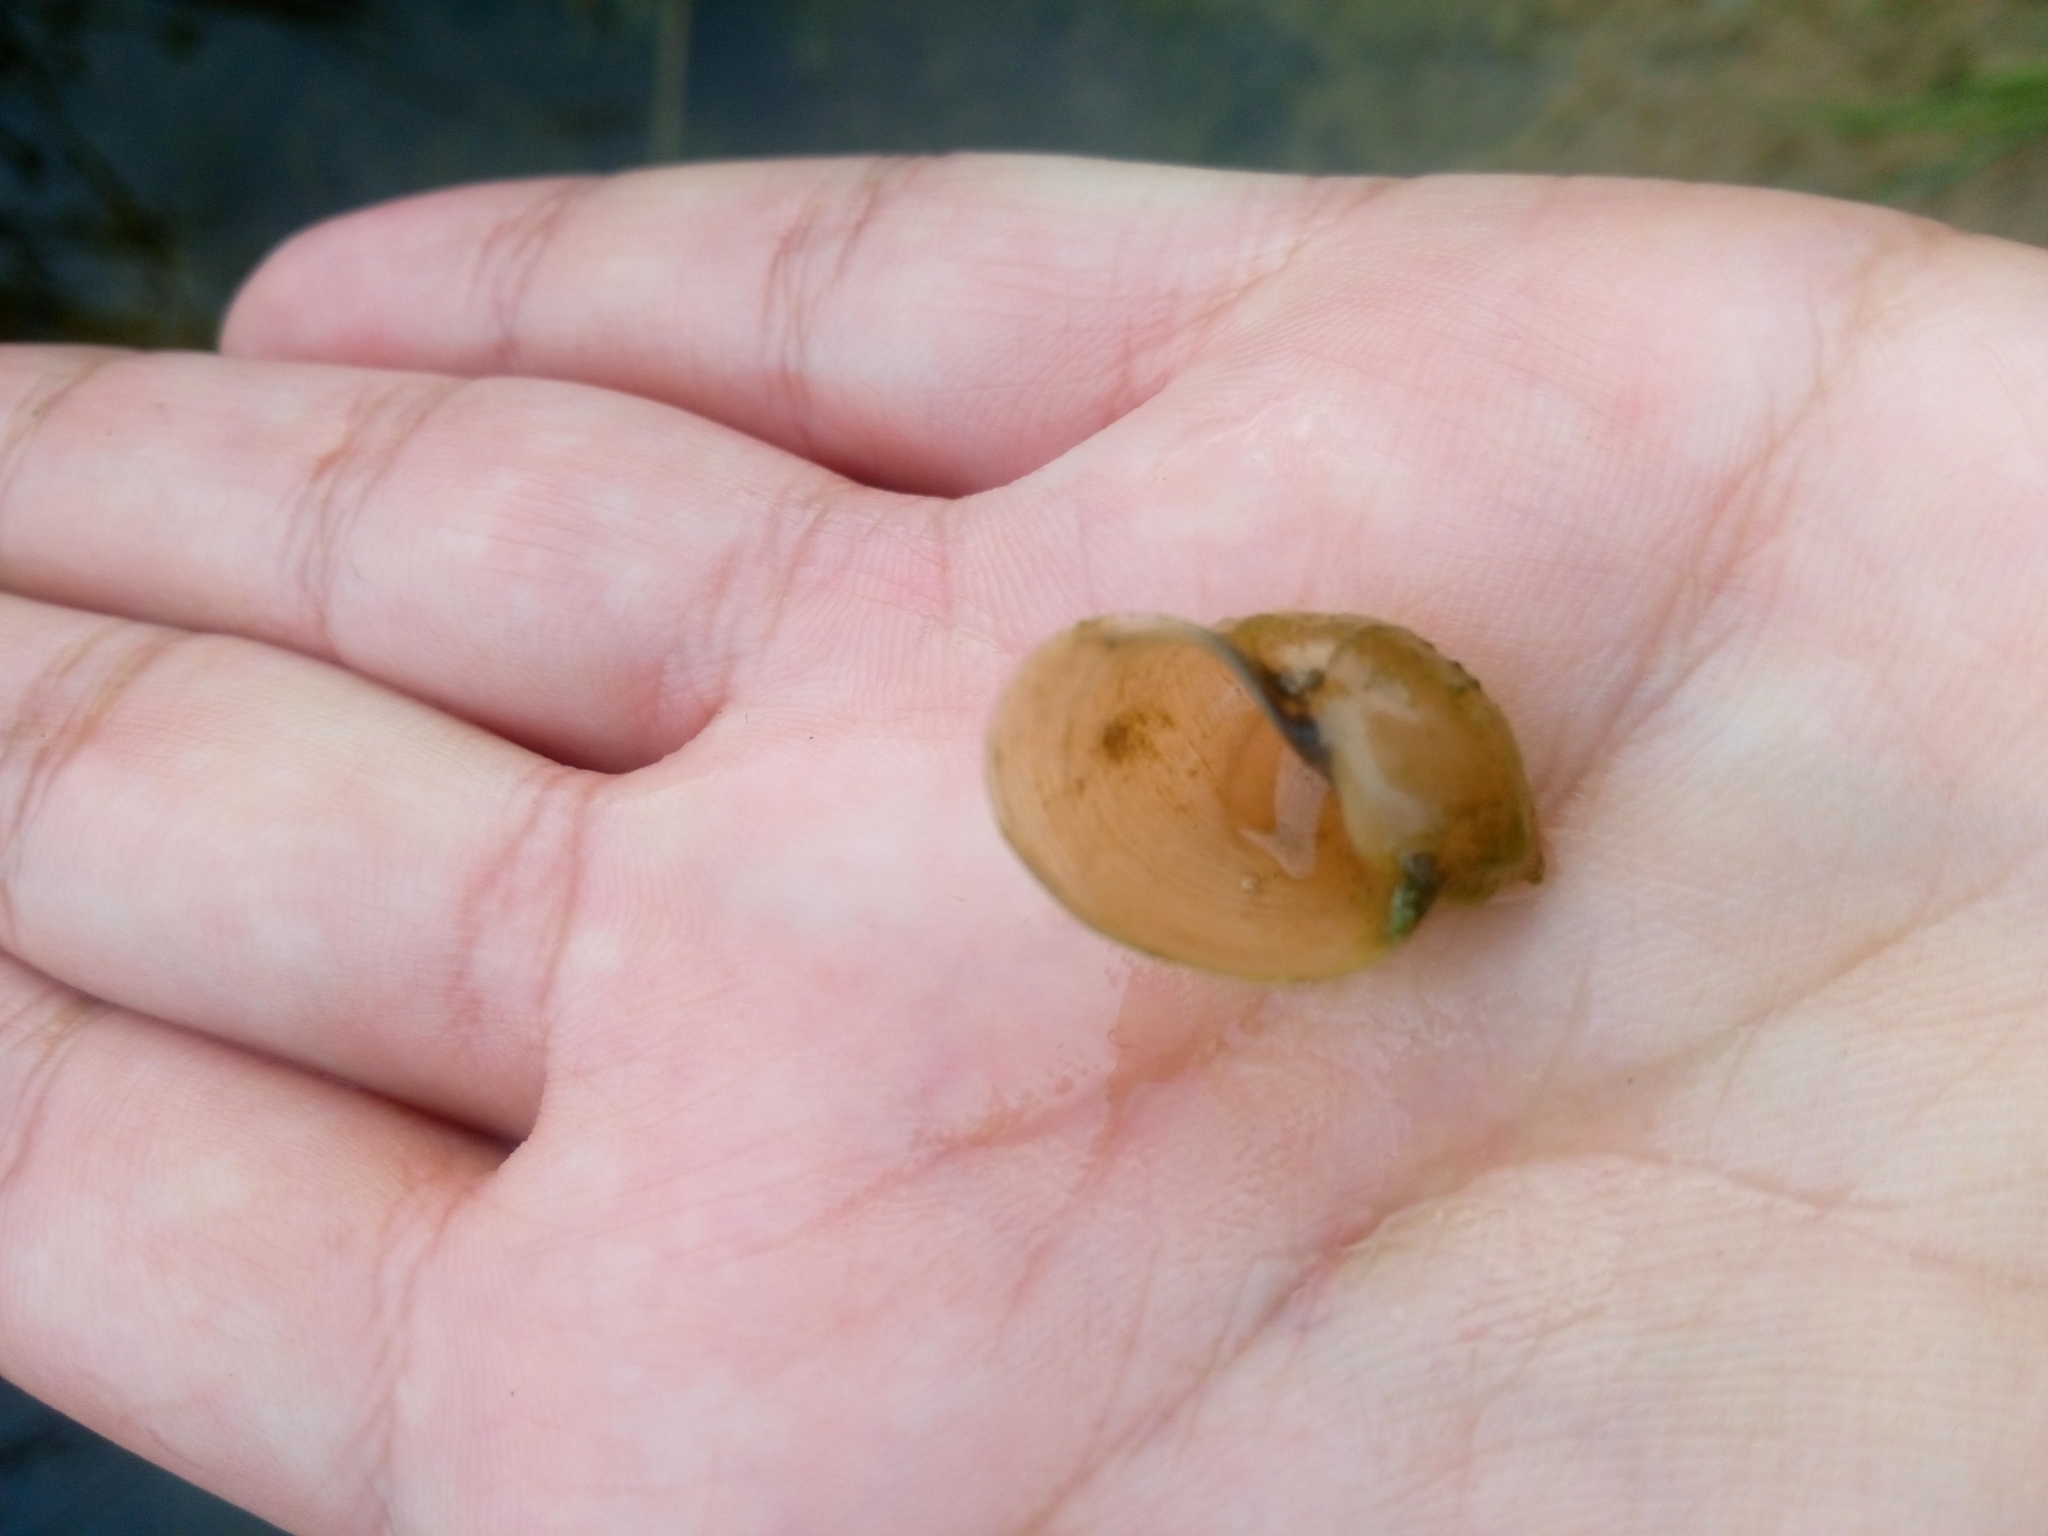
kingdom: Animalia
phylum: Mollusca
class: Gastropoda
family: Lymnaeidae
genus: Ampullaceana
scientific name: Ampullaceana balthica
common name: Wandering pond snail
